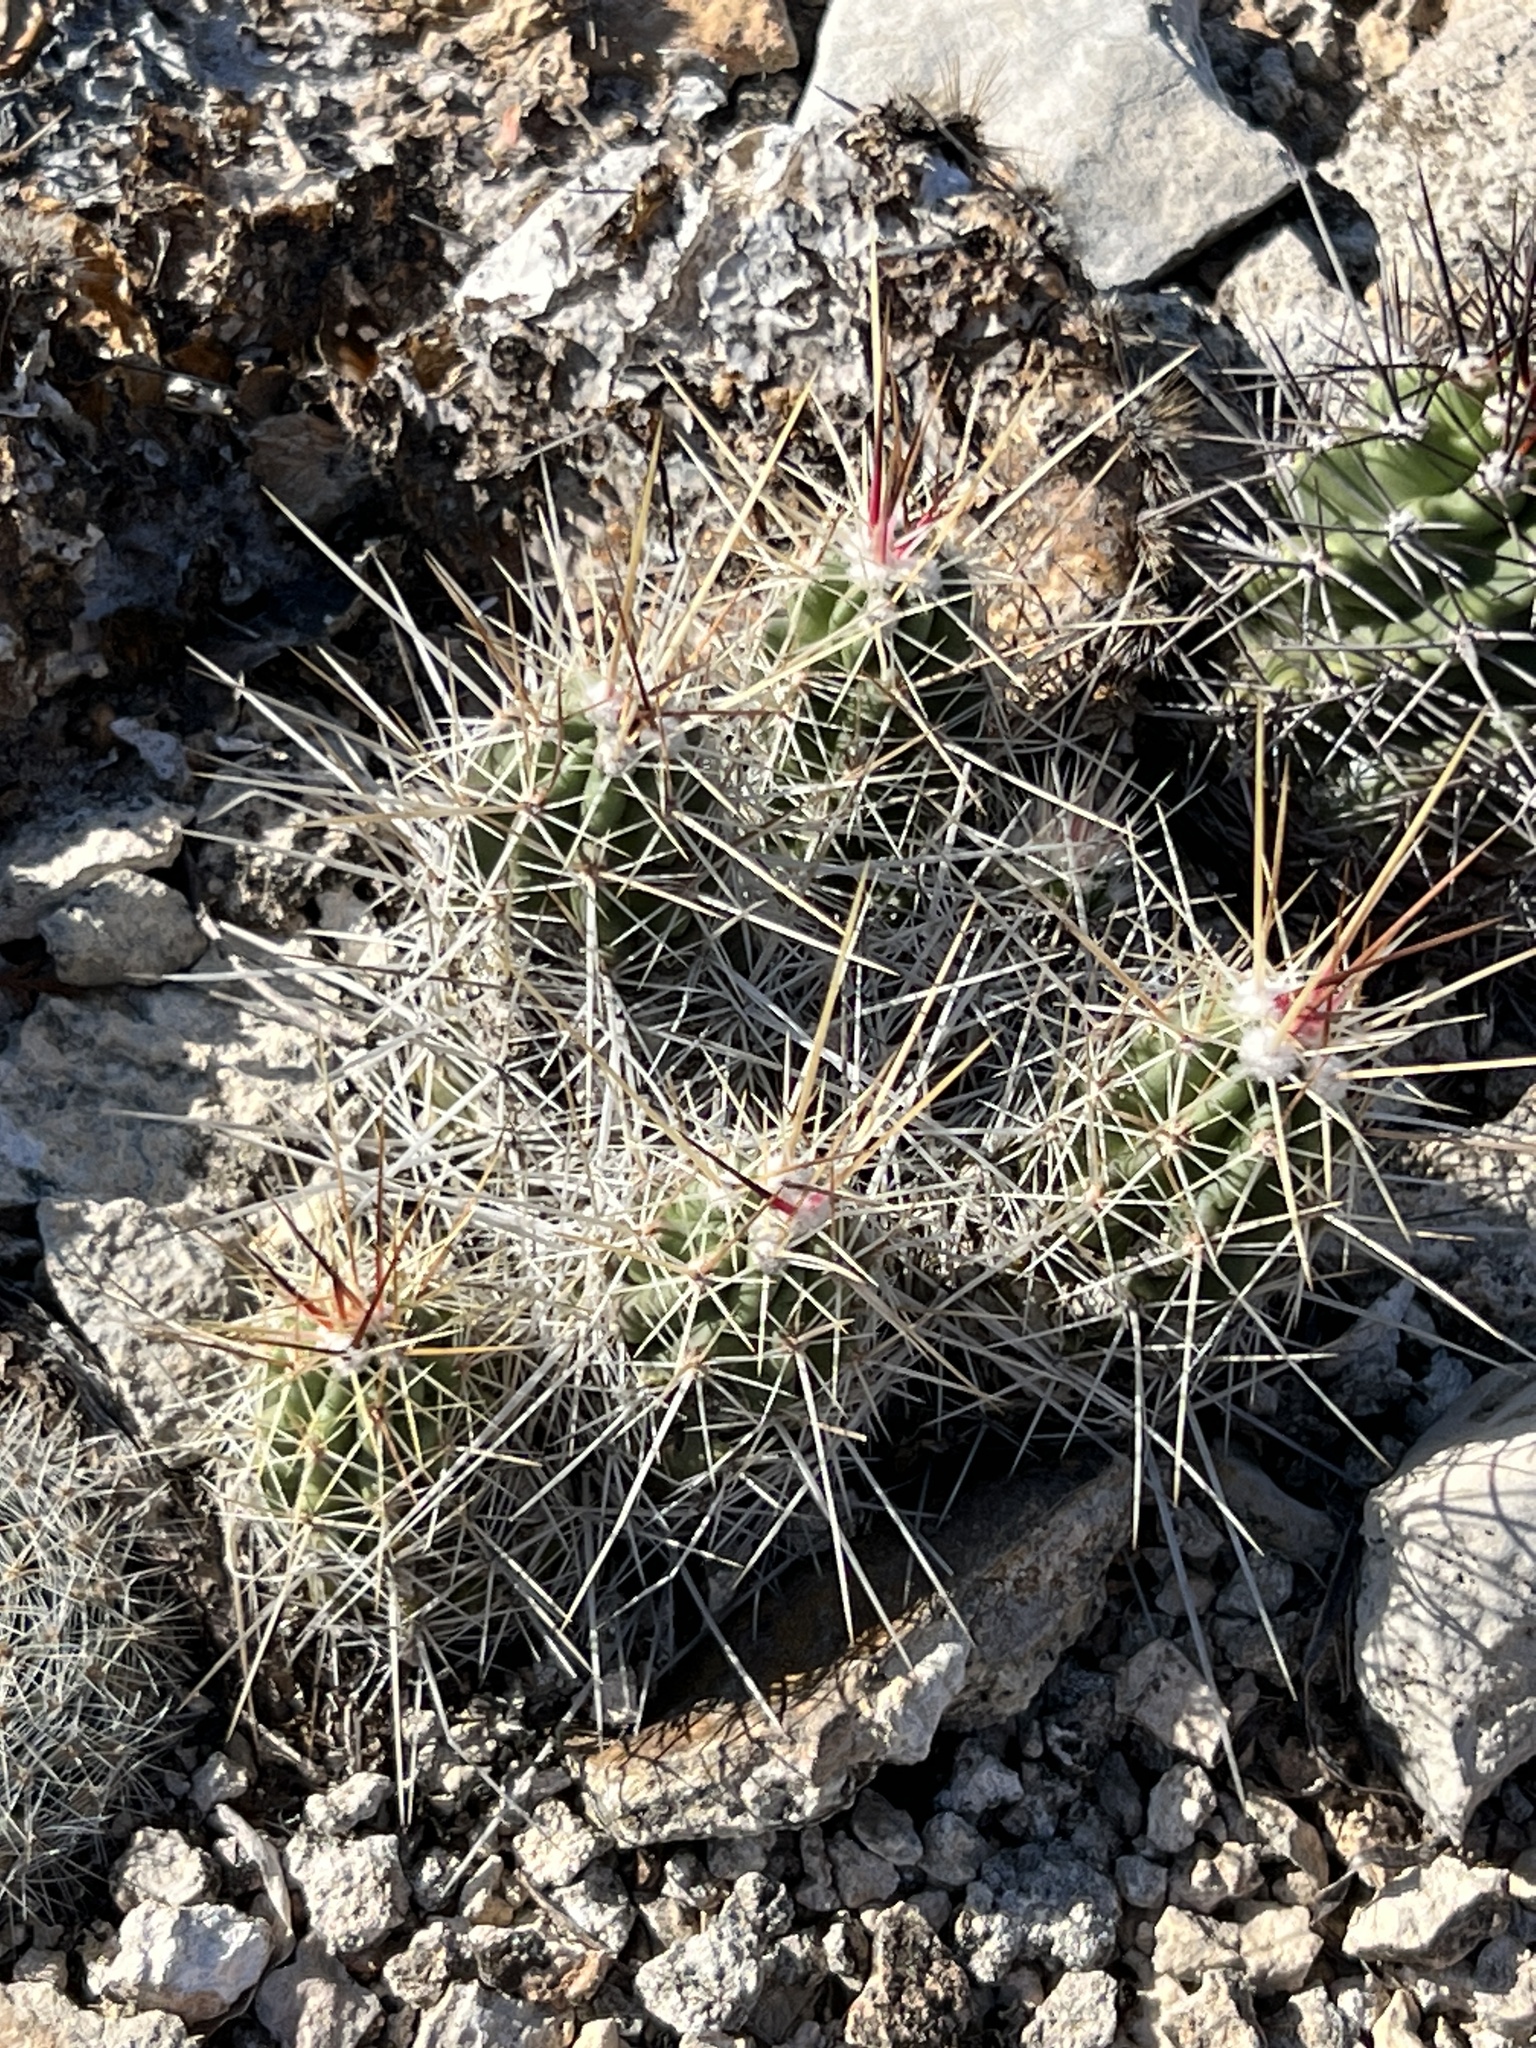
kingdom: Plantae
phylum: Tracheophyta
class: Magnoliopsida
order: Caryophyllales
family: Cactaceae
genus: Echinocereus
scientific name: Echinocereus enneacanthus
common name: Pitaya
